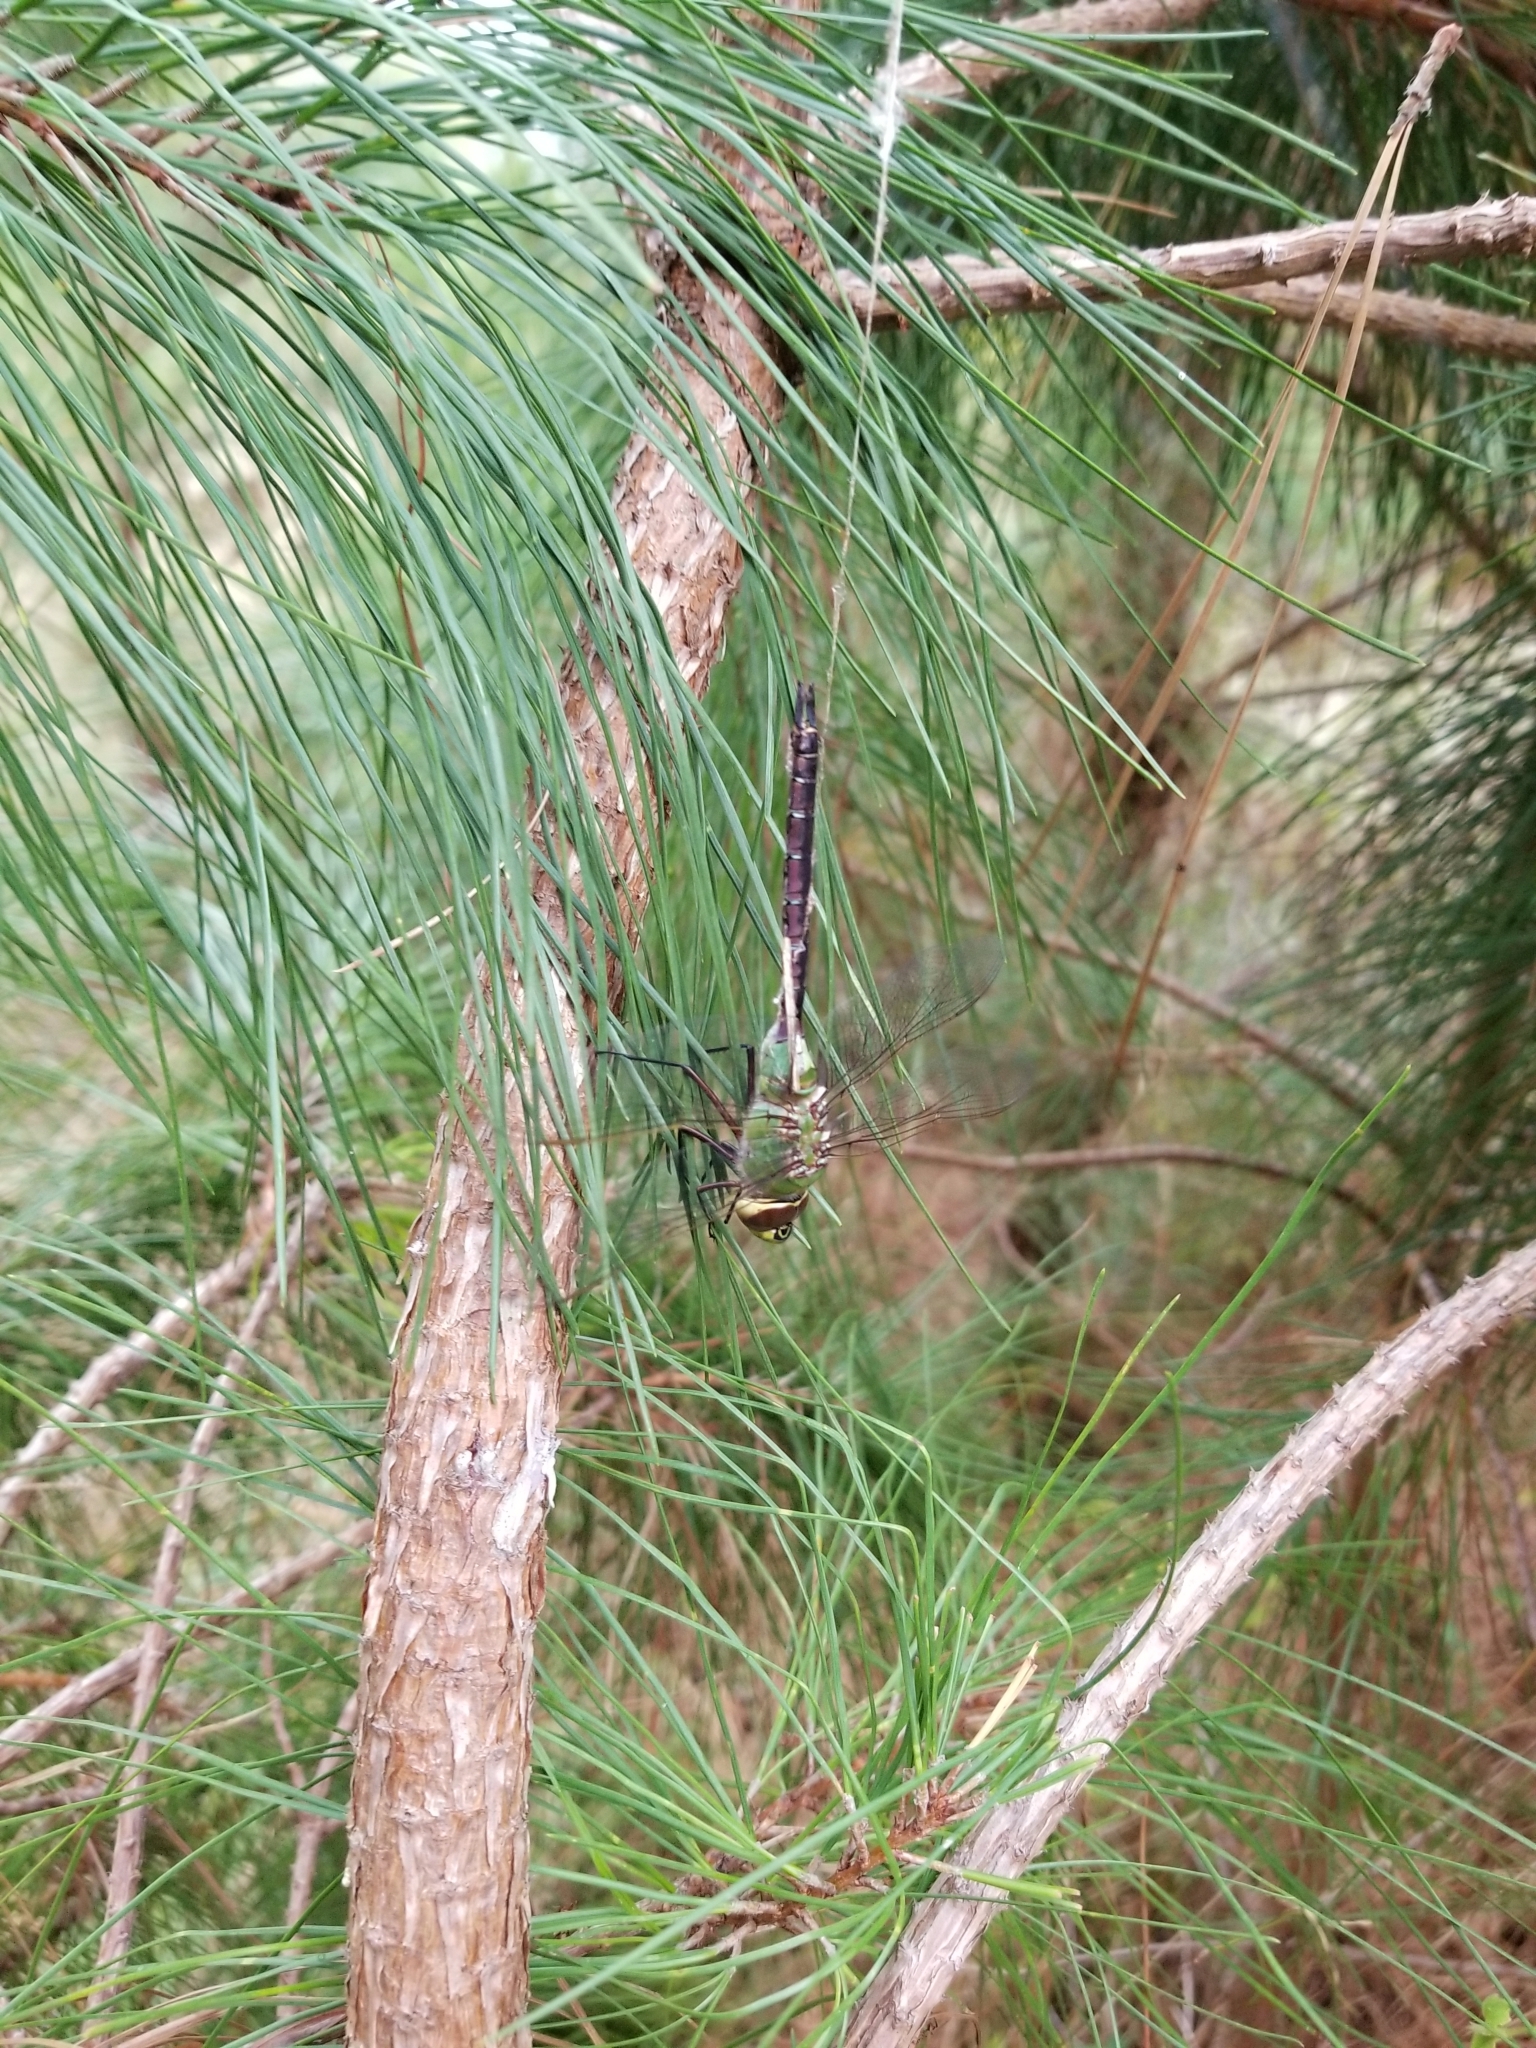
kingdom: Animalia
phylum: Arthropoda
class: Insecta
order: Odonata
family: Aeshnidae
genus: Anax
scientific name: Anax junius
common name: Common green darner
